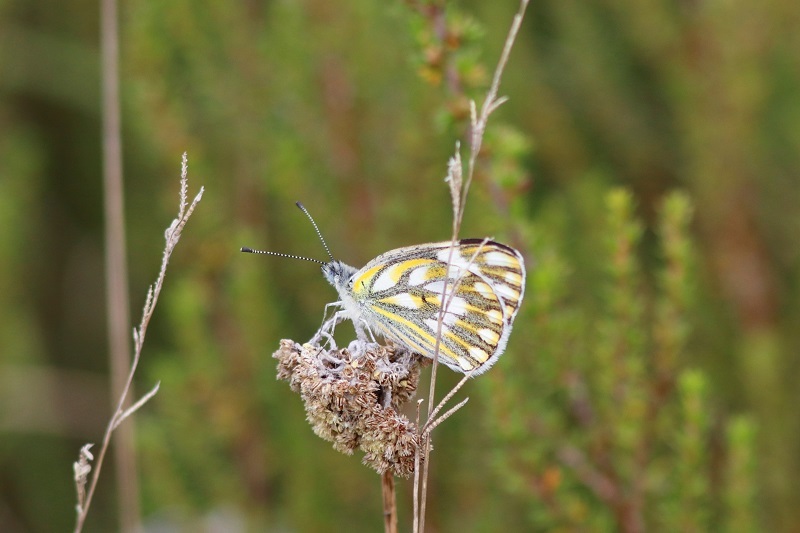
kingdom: Animalia
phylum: Arthropoda
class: Insecta
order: Lepidoptera
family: Pieridae
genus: Pontia
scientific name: Pontia helice
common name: Meadow white
